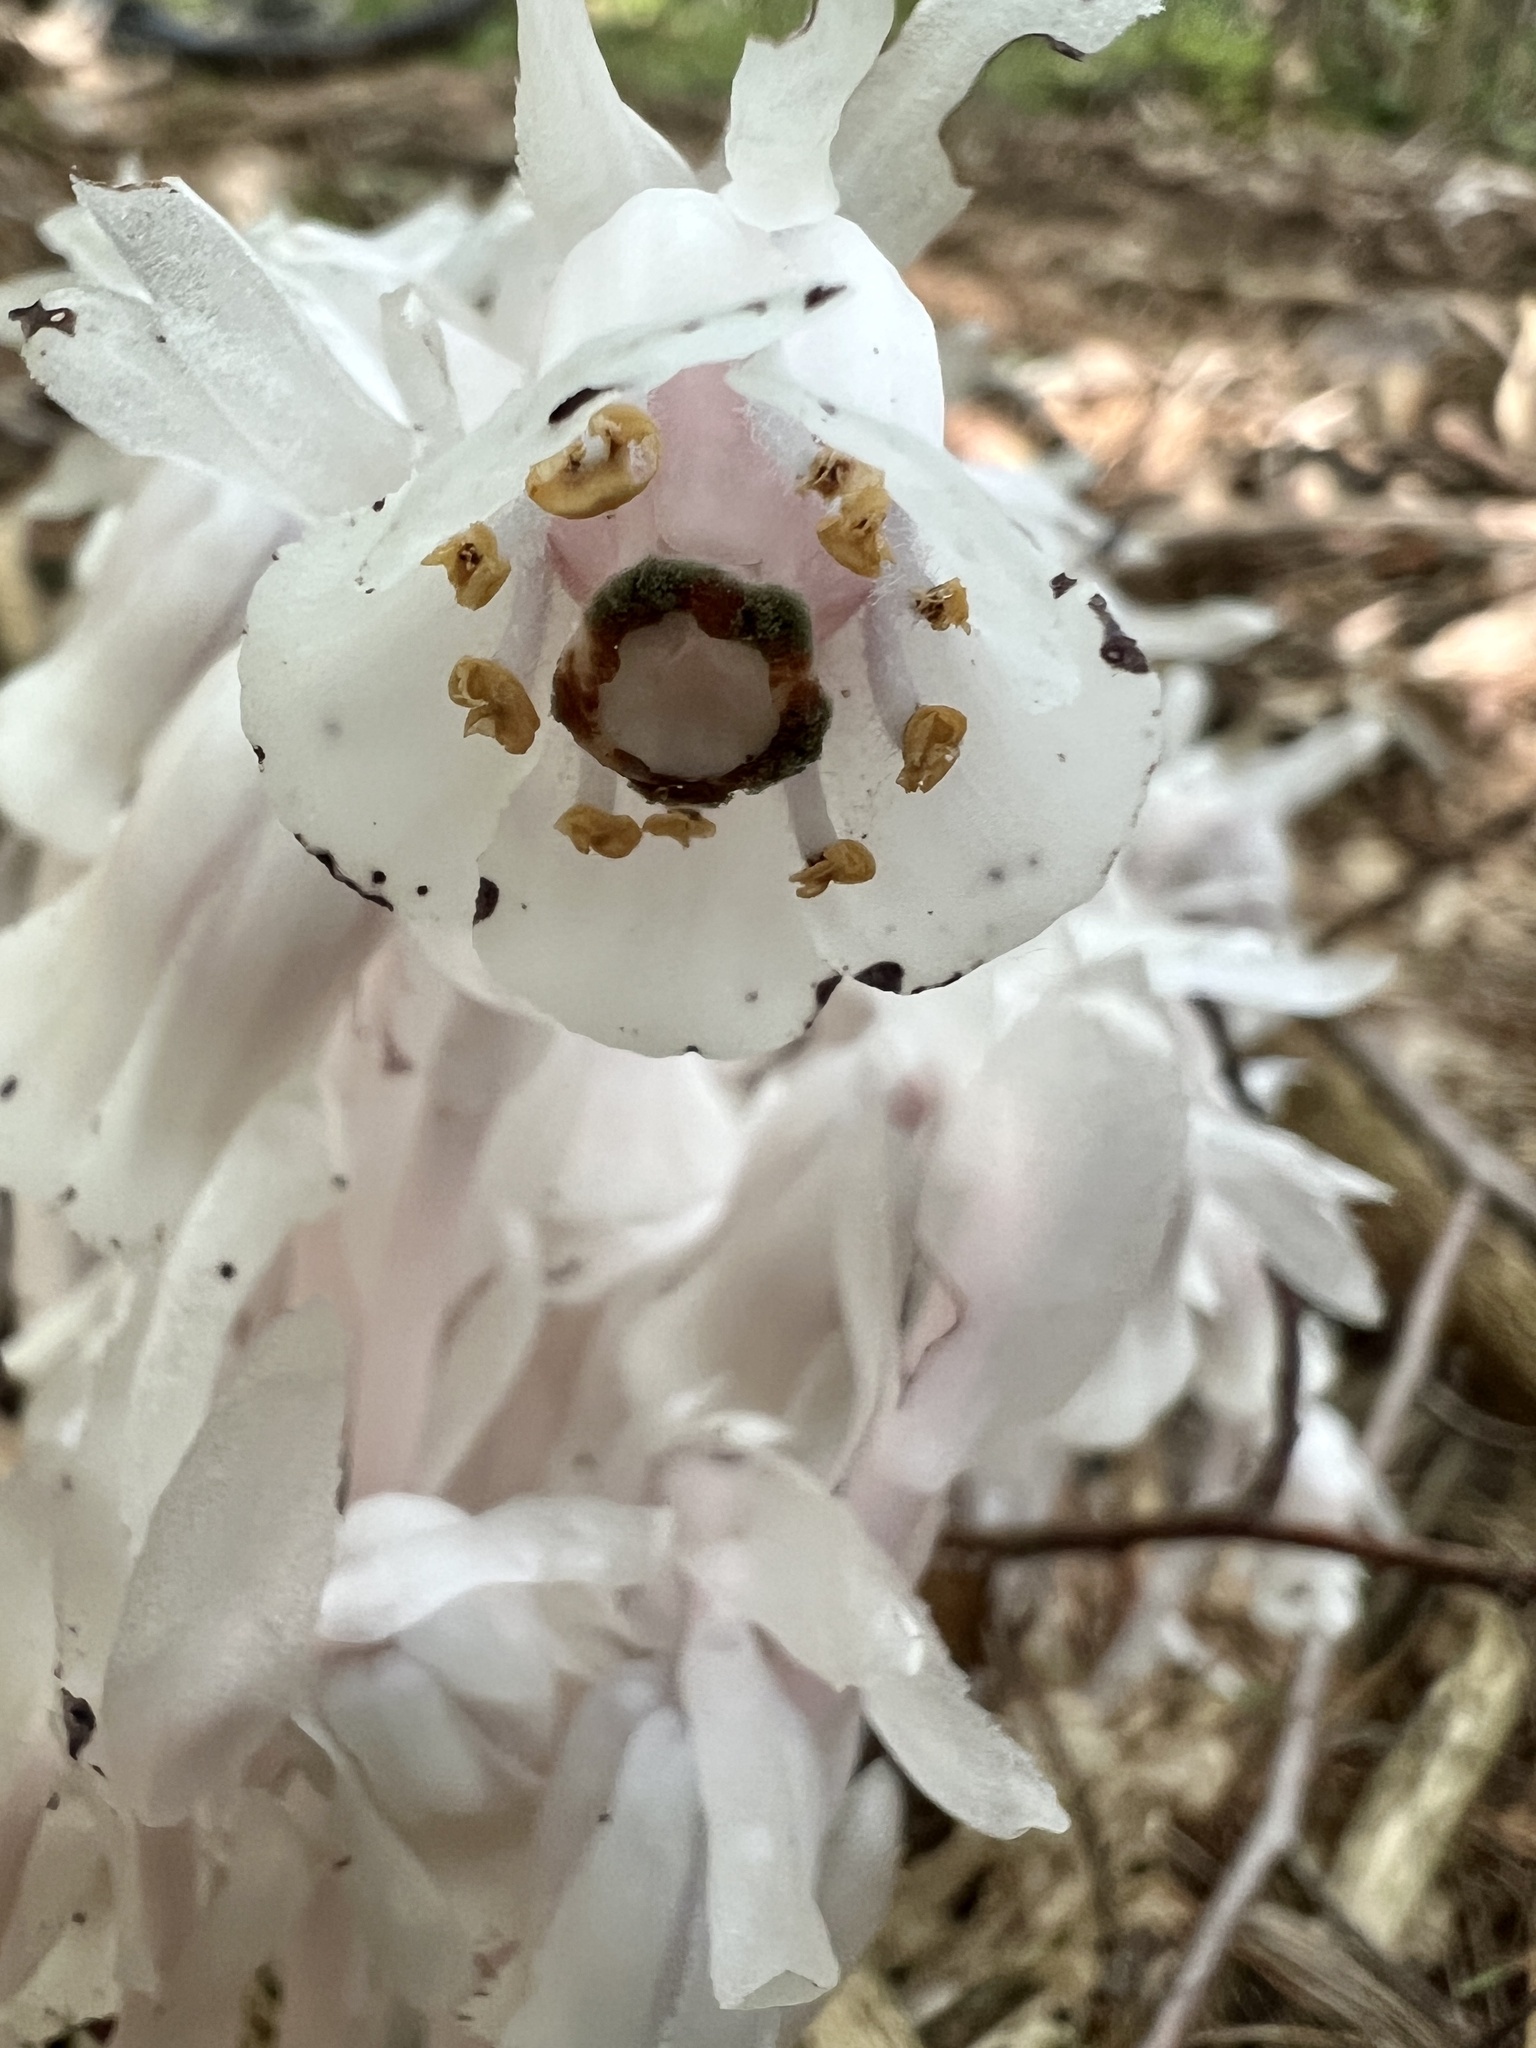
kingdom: Plantae
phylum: Tracheophyta
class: Magnoliopsida
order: Ericales
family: Ericaceae
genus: Monotropa
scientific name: Monotropa uniflora
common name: Convulsion root
